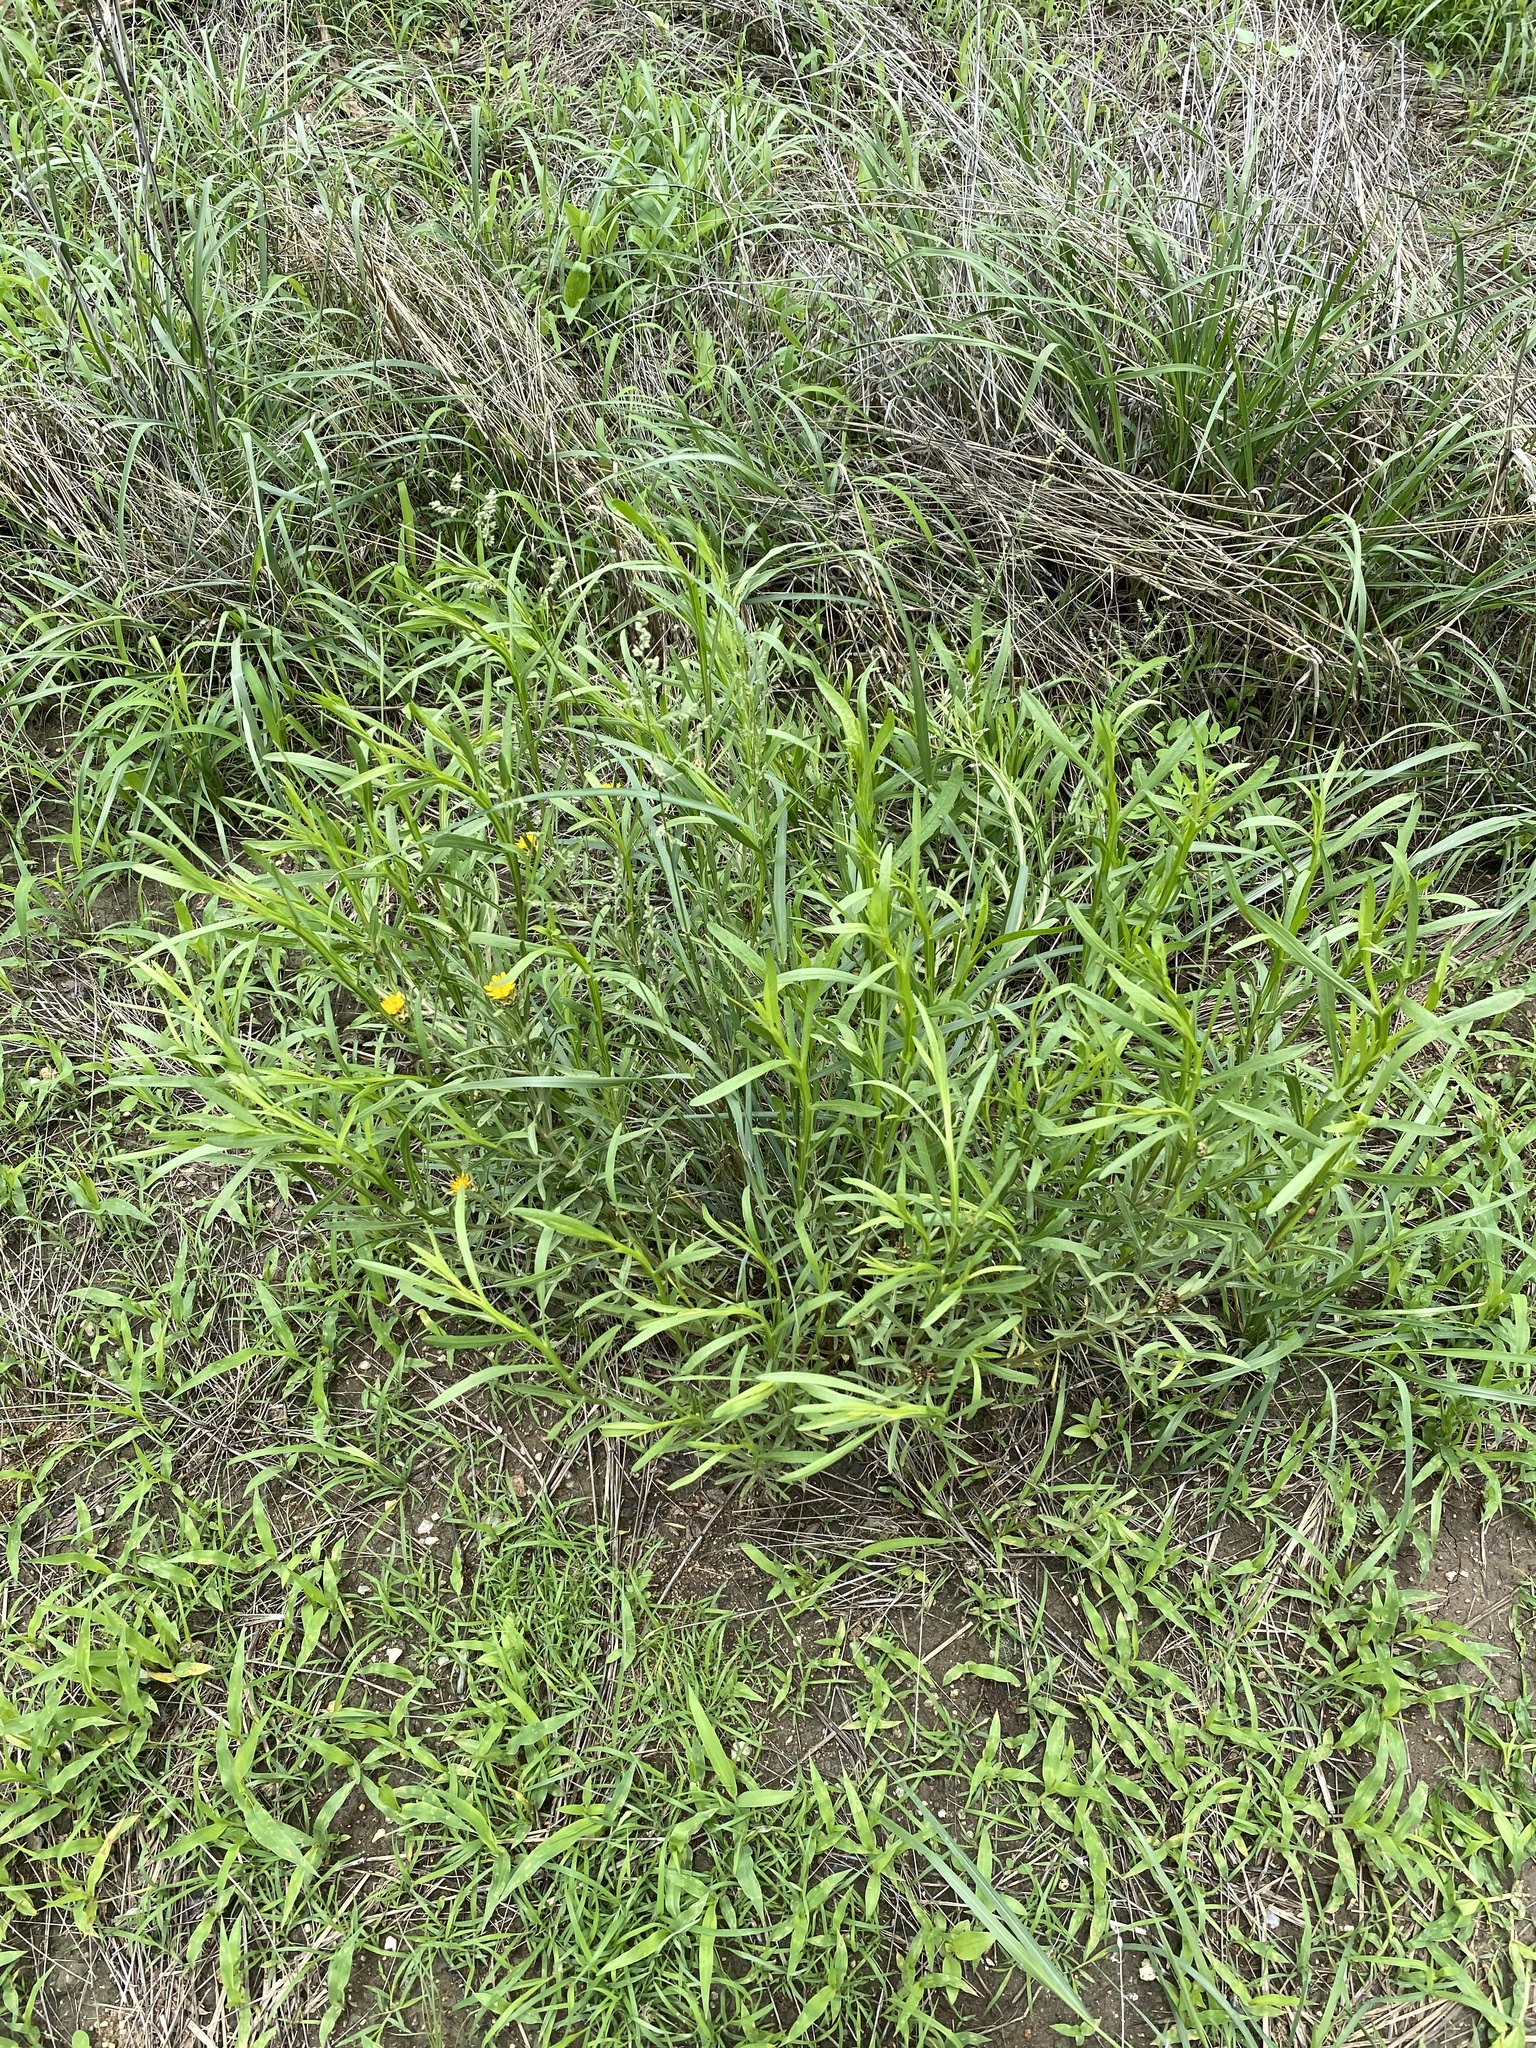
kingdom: Plantae
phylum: Tracheophyta
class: Magnoliopsida
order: Asterales
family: Asteraceae
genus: Ondetia
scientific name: Ondetia linearis
